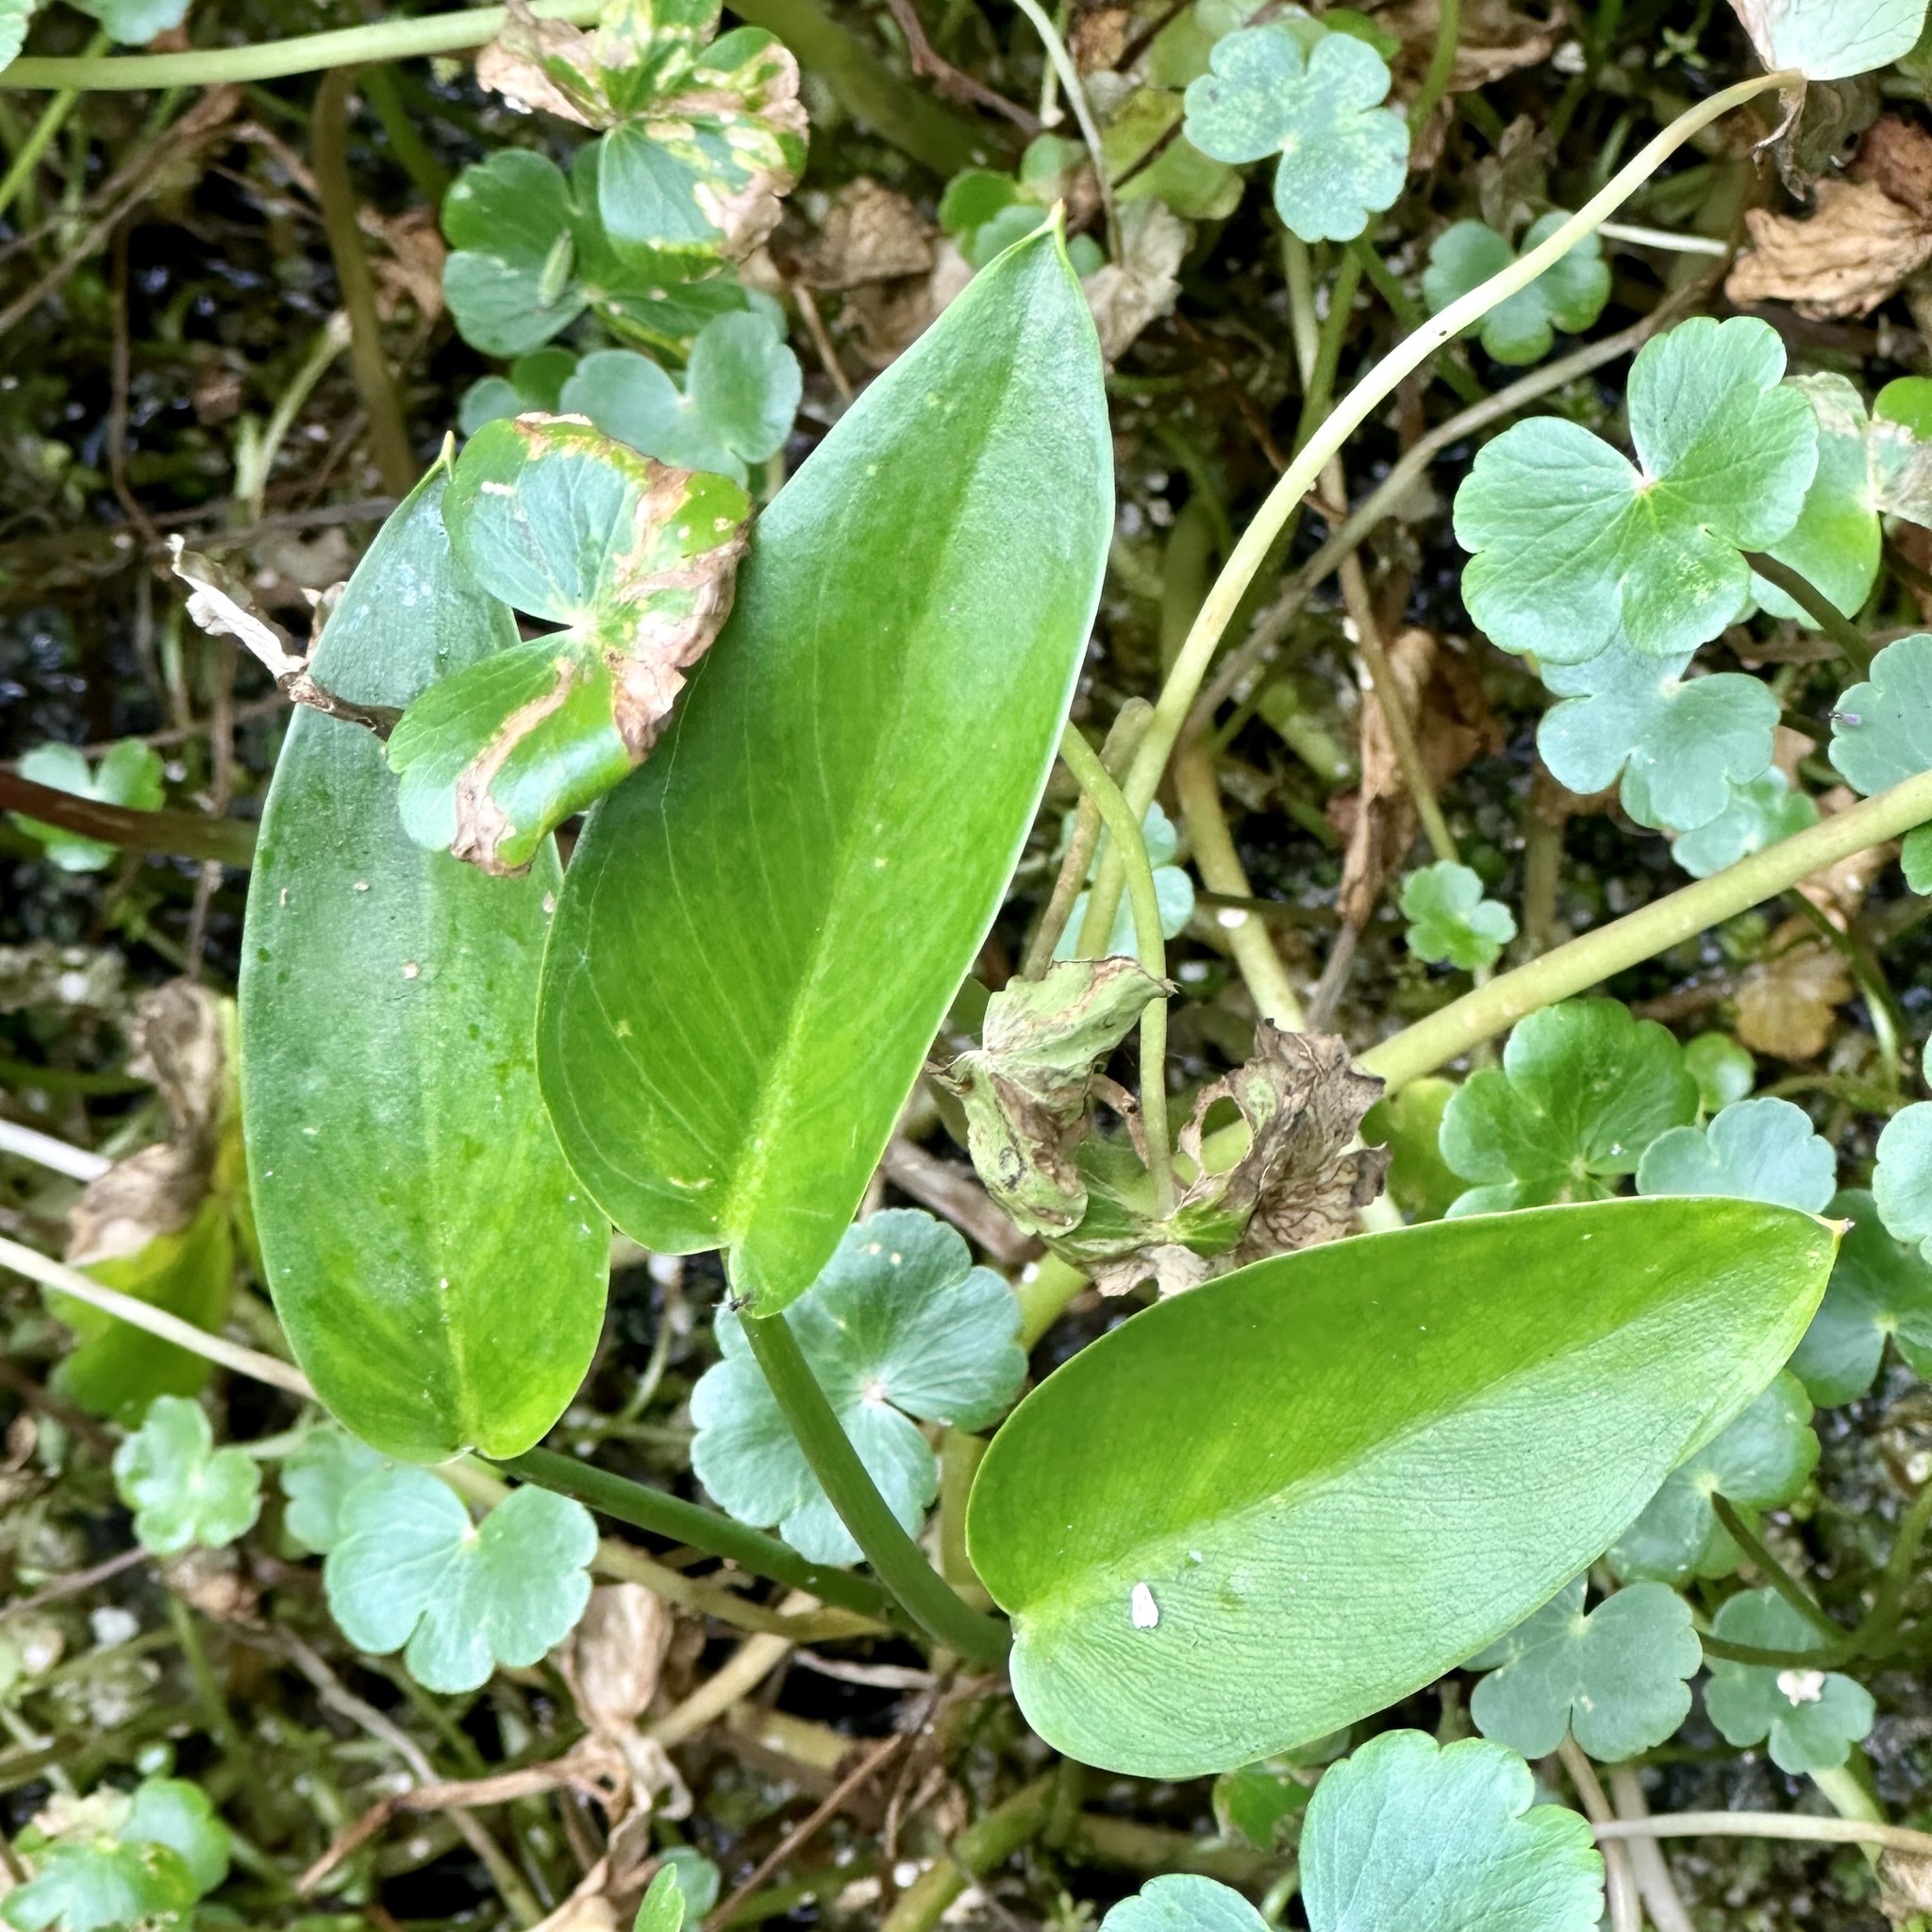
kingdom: Plantae
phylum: Tracheophyta
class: Liliopsida
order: Alismatales
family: Araceae
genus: Peltandra
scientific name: Peltandra virginica
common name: Arrow arum
